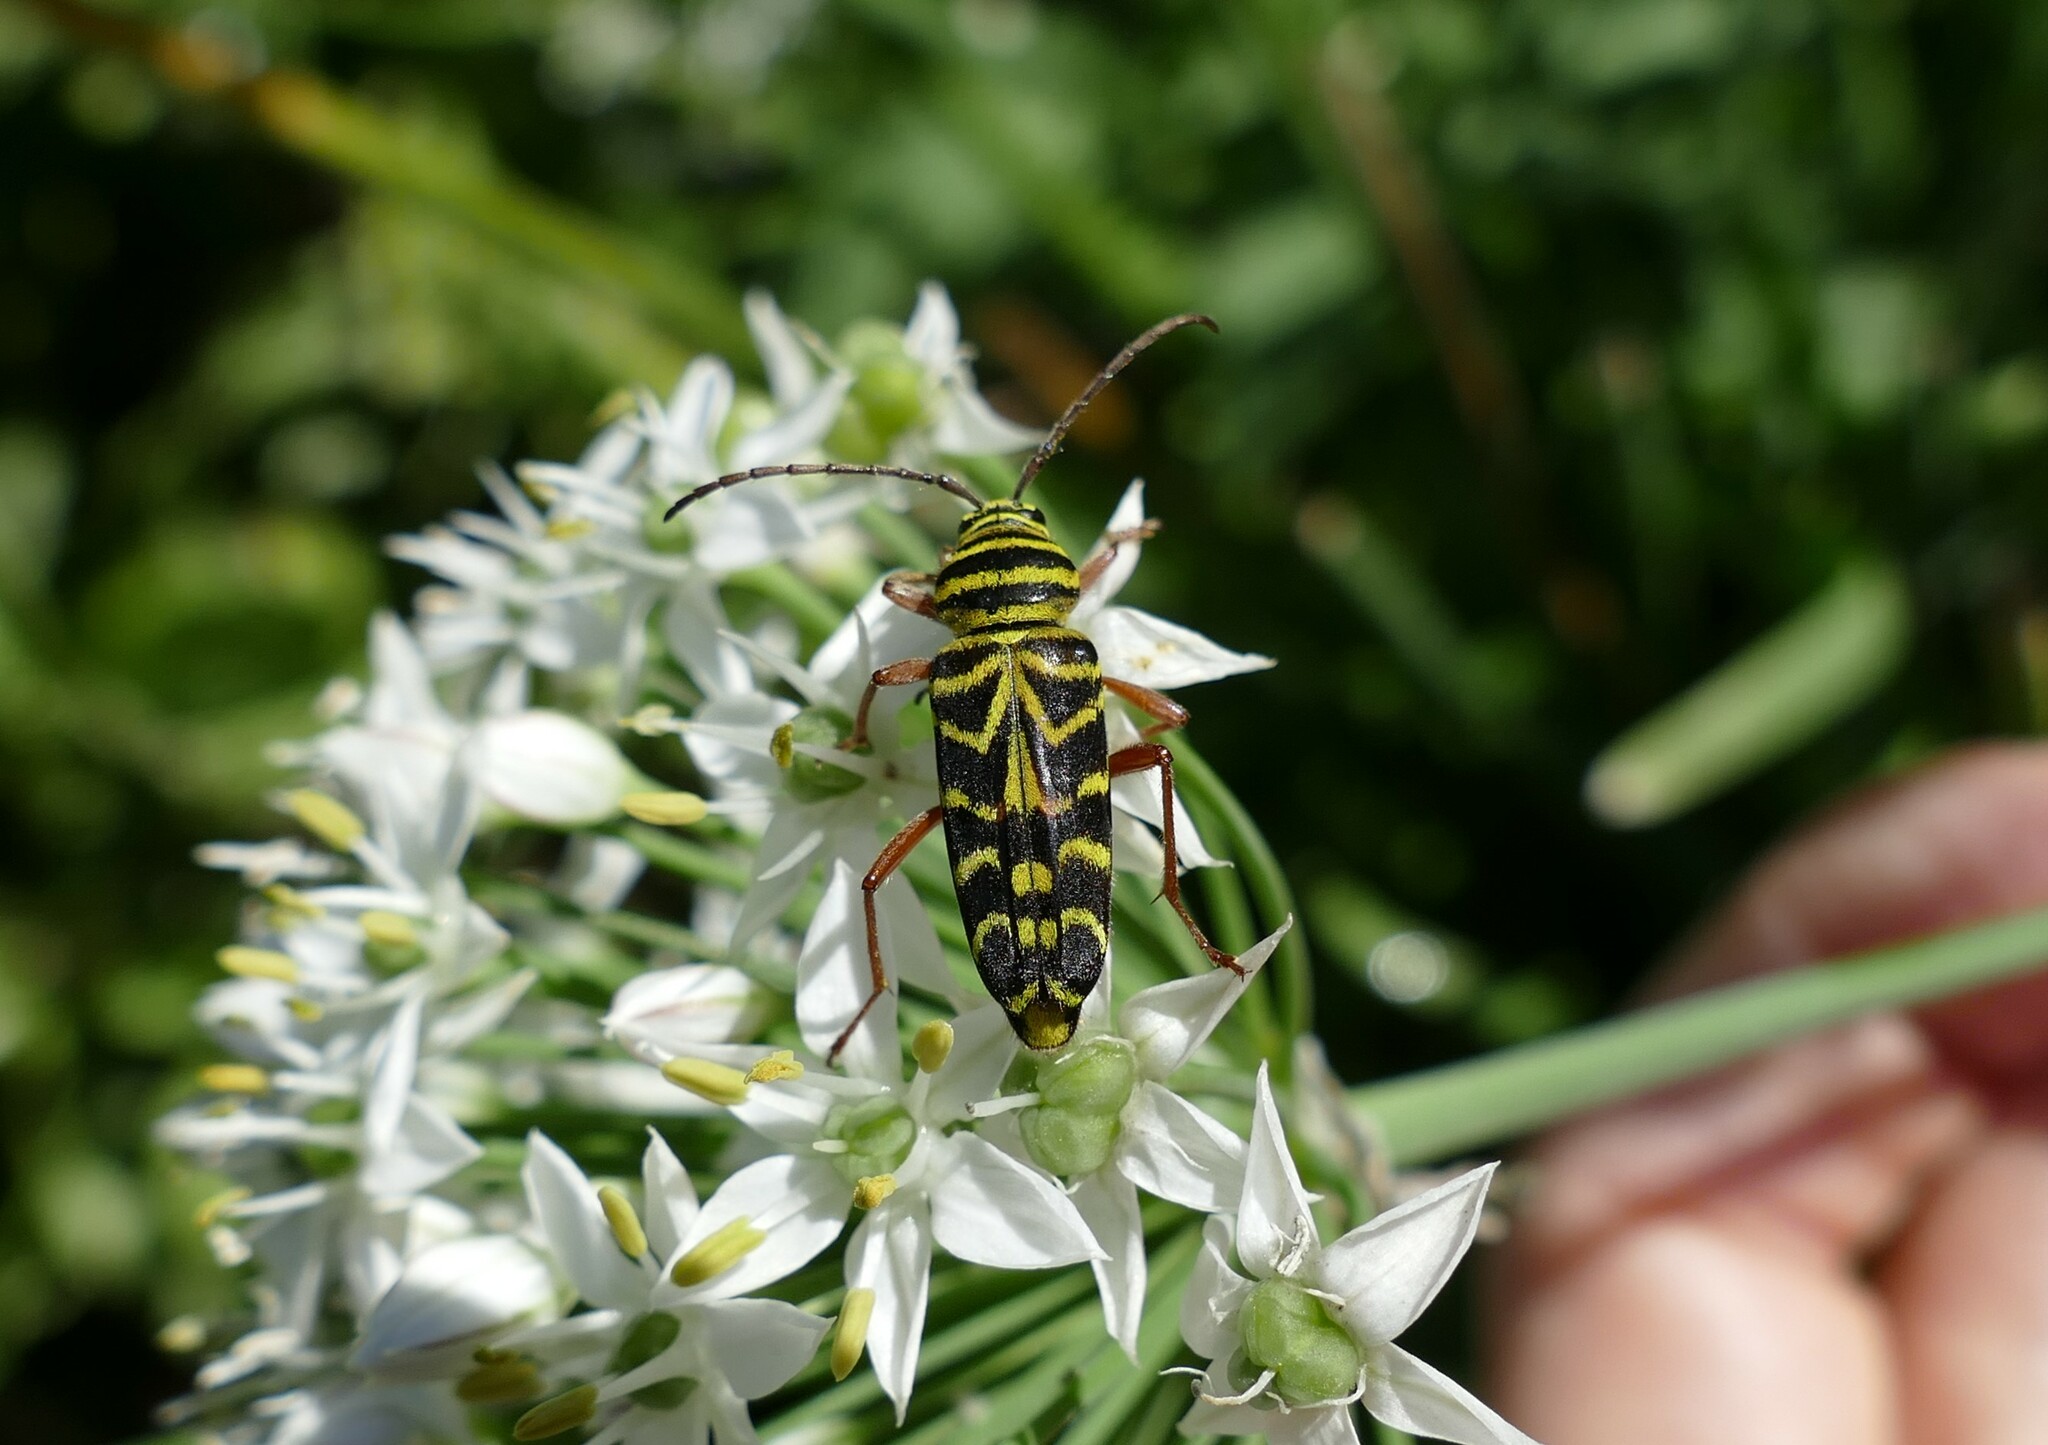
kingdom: Animalia
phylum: Arthropoda
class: Insecta
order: Coleoptera
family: Cerambycidae
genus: Megacyllene
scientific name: Megacyllene robiniae
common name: Locust borer
